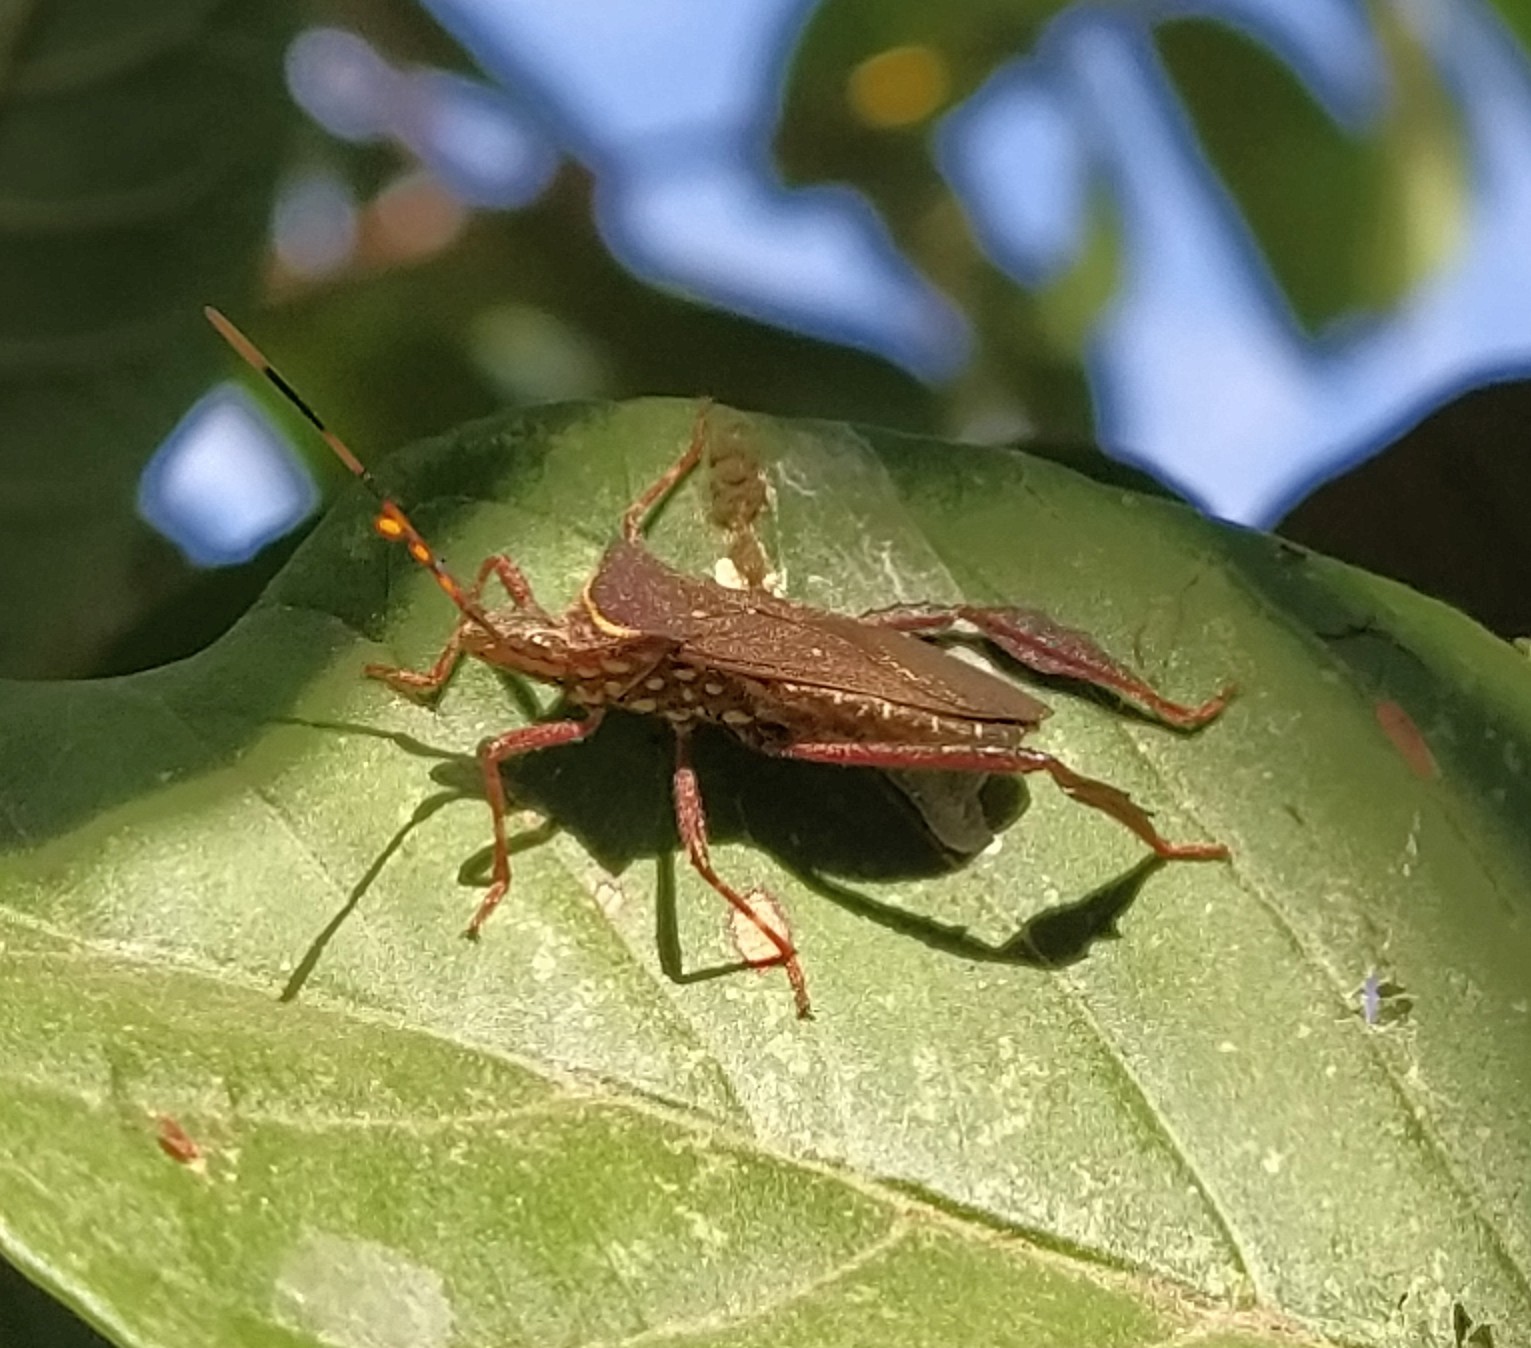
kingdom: Animalia
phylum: Arthropoda
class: Insecta
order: Hemiptera
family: Coreidae
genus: Leptoglossus
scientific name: Leptoglossus gonagra
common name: Citron bug
